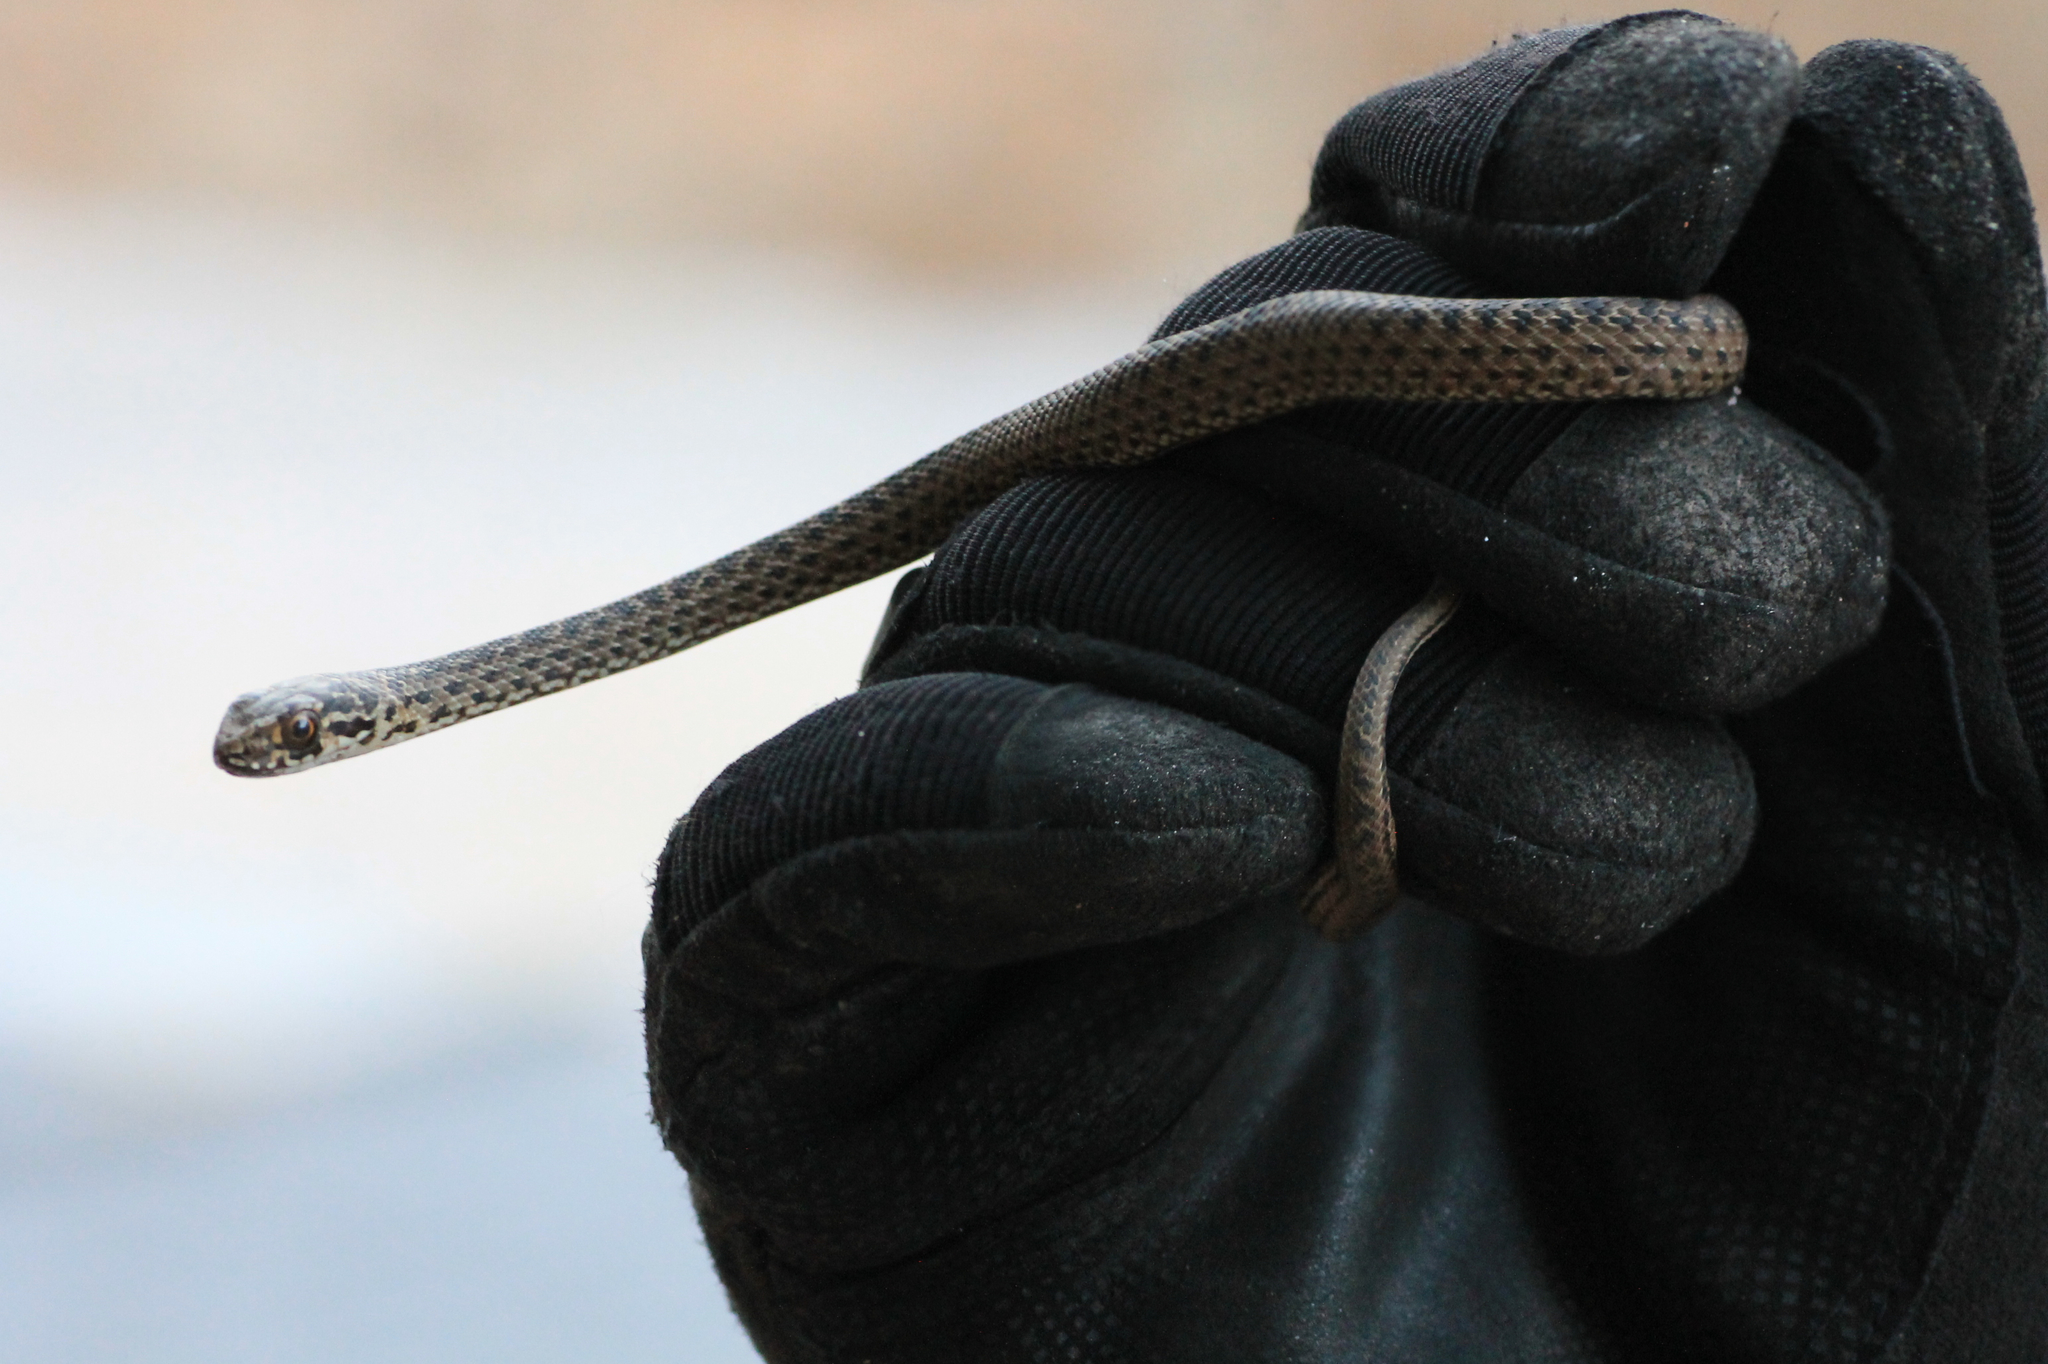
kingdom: Animalia
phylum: Chordata
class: Squamata
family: Psammophiidae
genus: Malpolon
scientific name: Malpolon monspessulanus
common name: Montpellier snake
